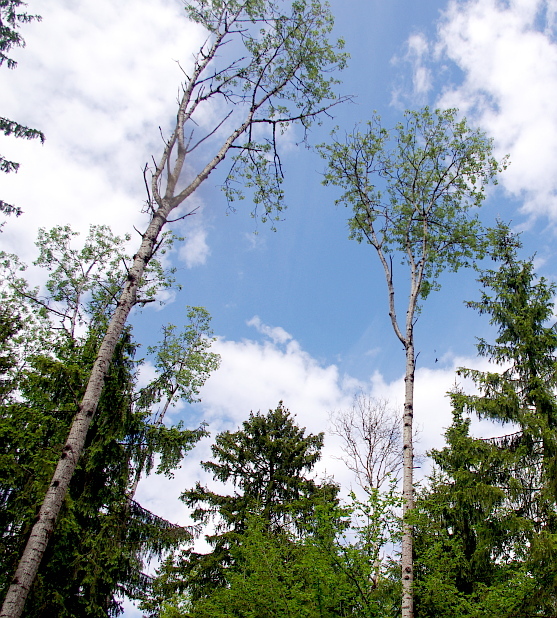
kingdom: Plantae
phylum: Tracheophyta
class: Magnoliopsida
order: Malpighiales
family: Salicaceae
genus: Populus
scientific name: Populus tremula
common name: European aspen
